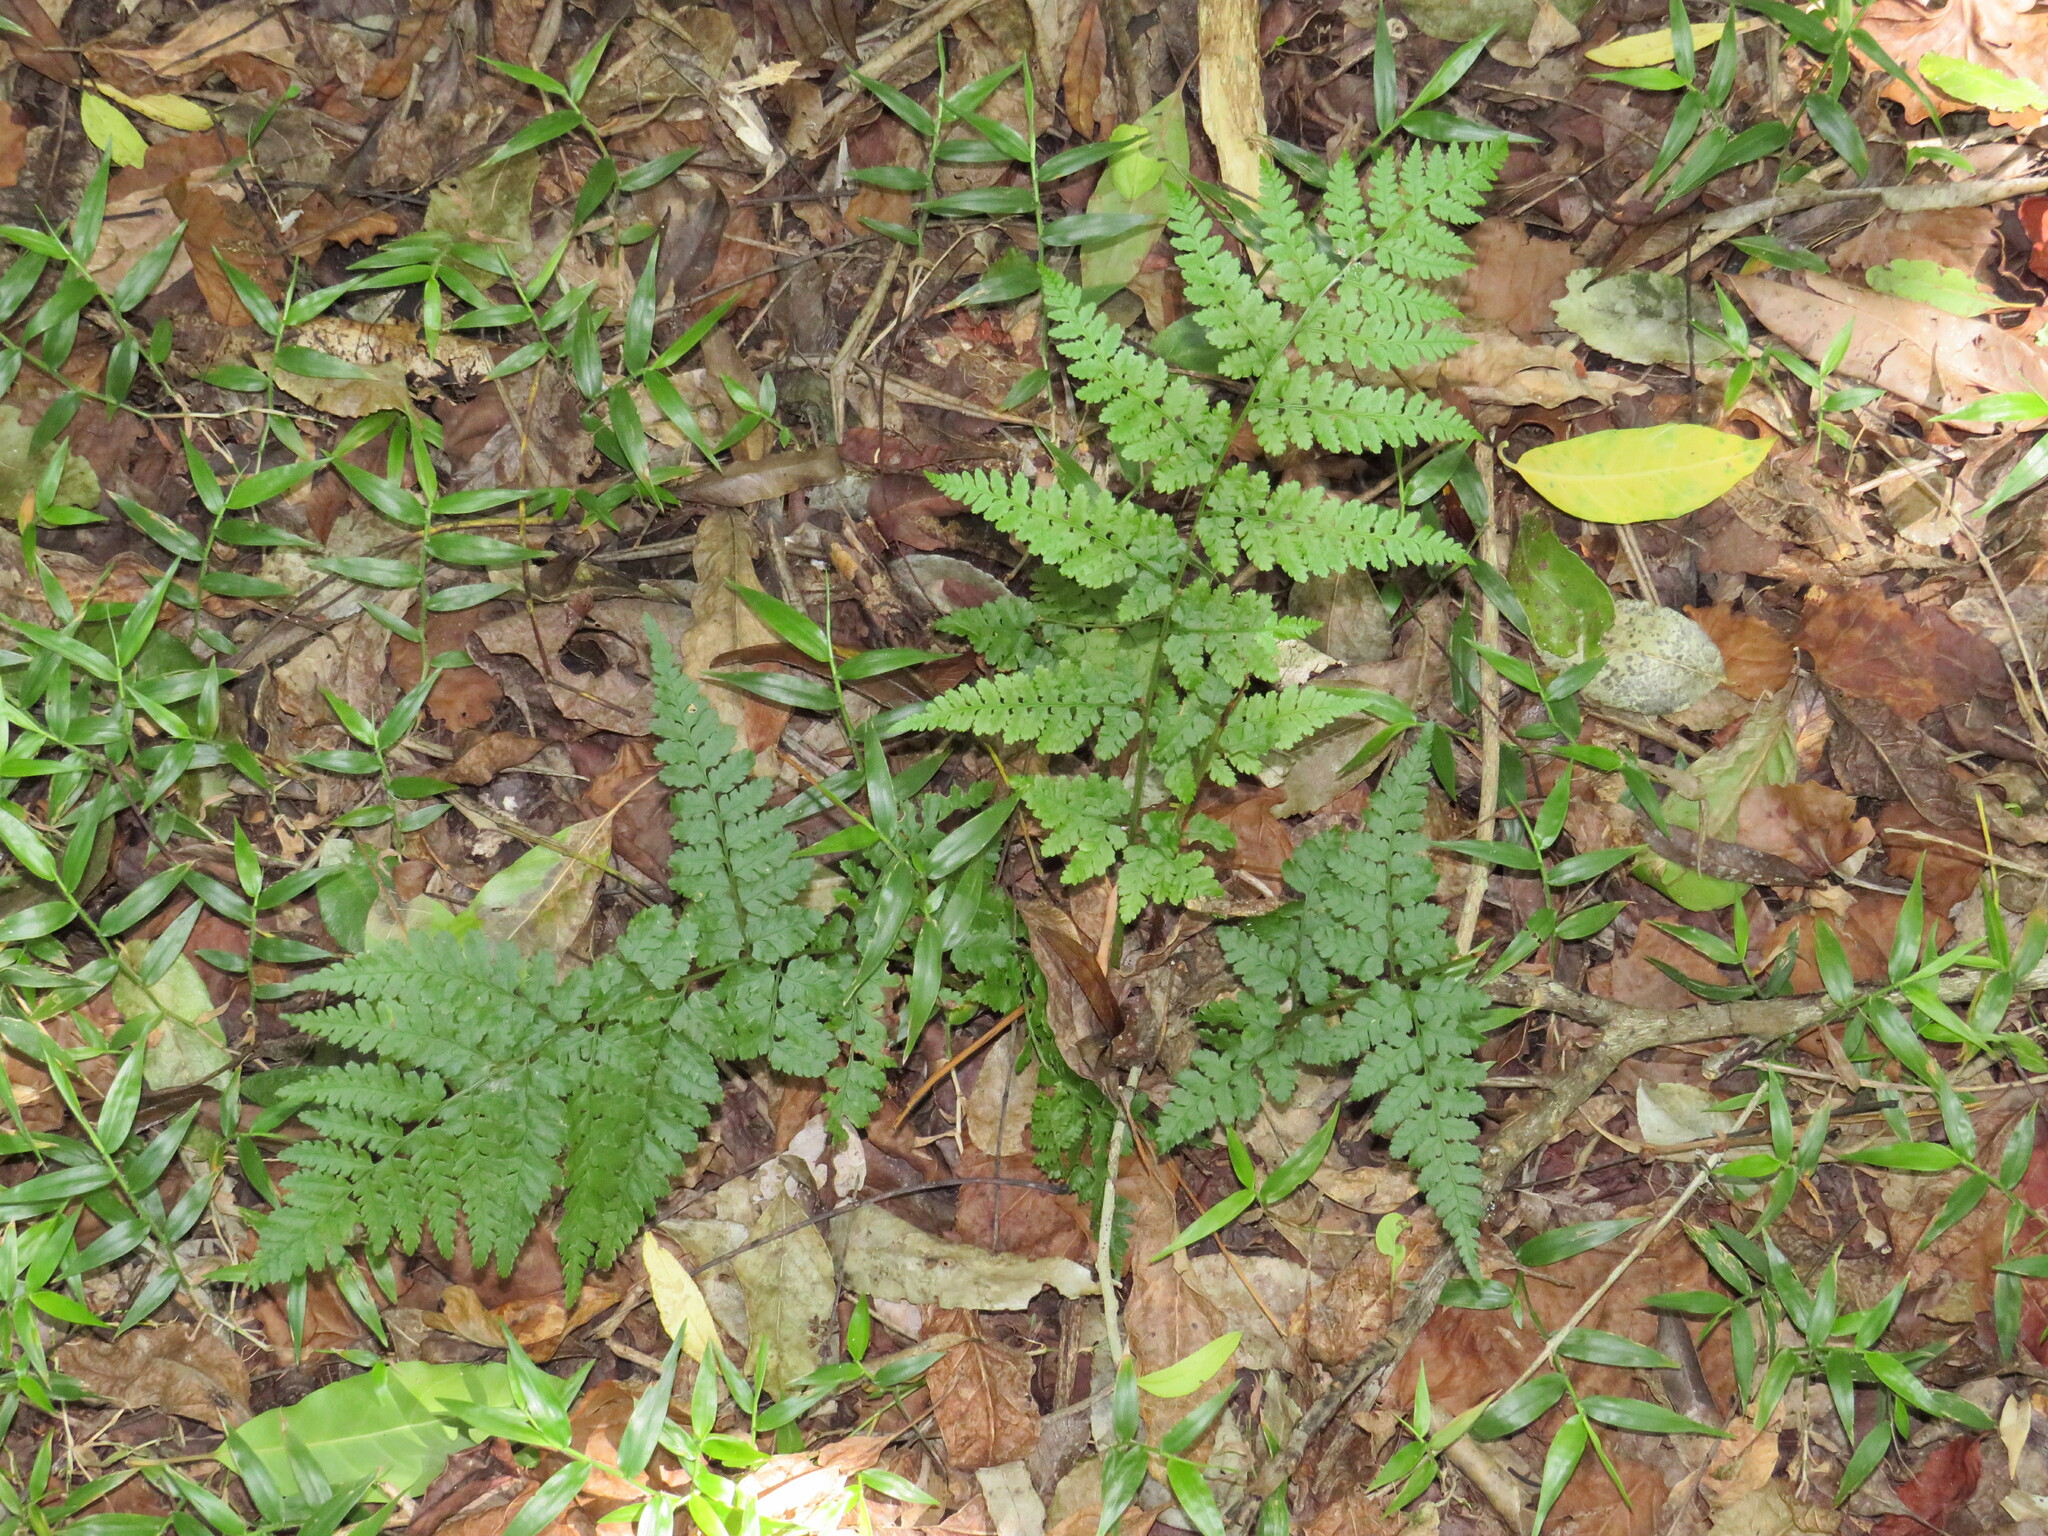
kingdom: Plantae
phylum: Tracheophyta
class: Polypodiopsida
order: Polypodiales
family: Dryopteridaceae
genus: Dryopteris
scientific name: Dryopteris inaequalis
